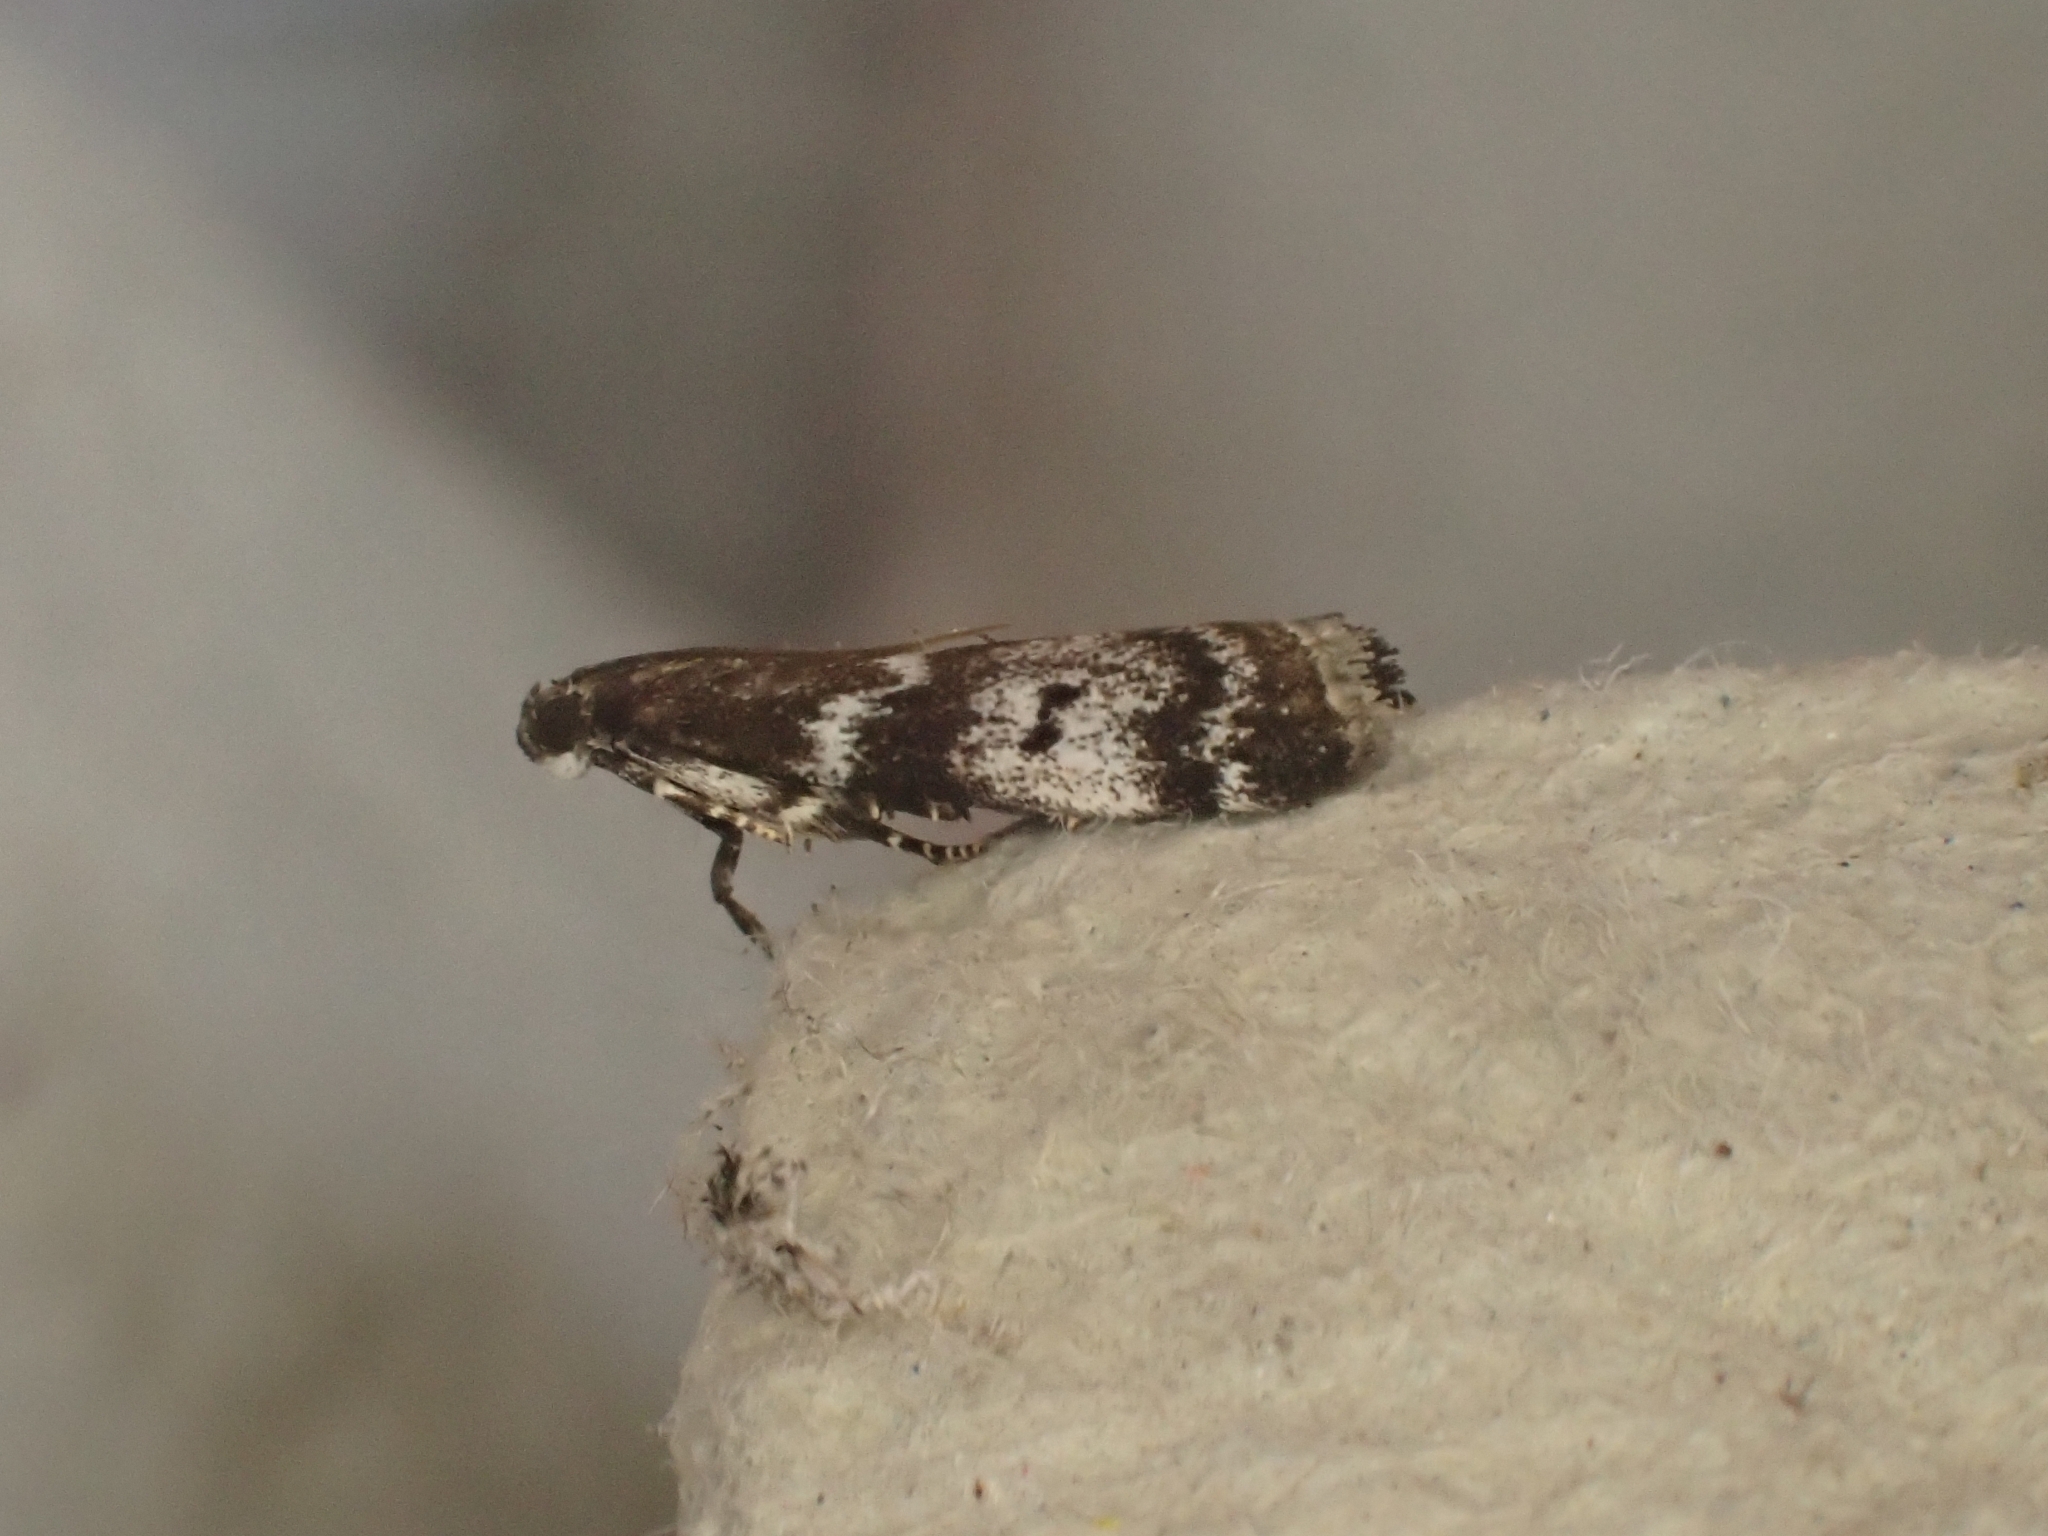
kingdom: Animalia
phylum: Arthropoda
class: Insecta
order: Lepidoptera
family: Pyralidae
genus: Assara
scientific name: Assara terebrella
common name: Dark spruce knot-horn
